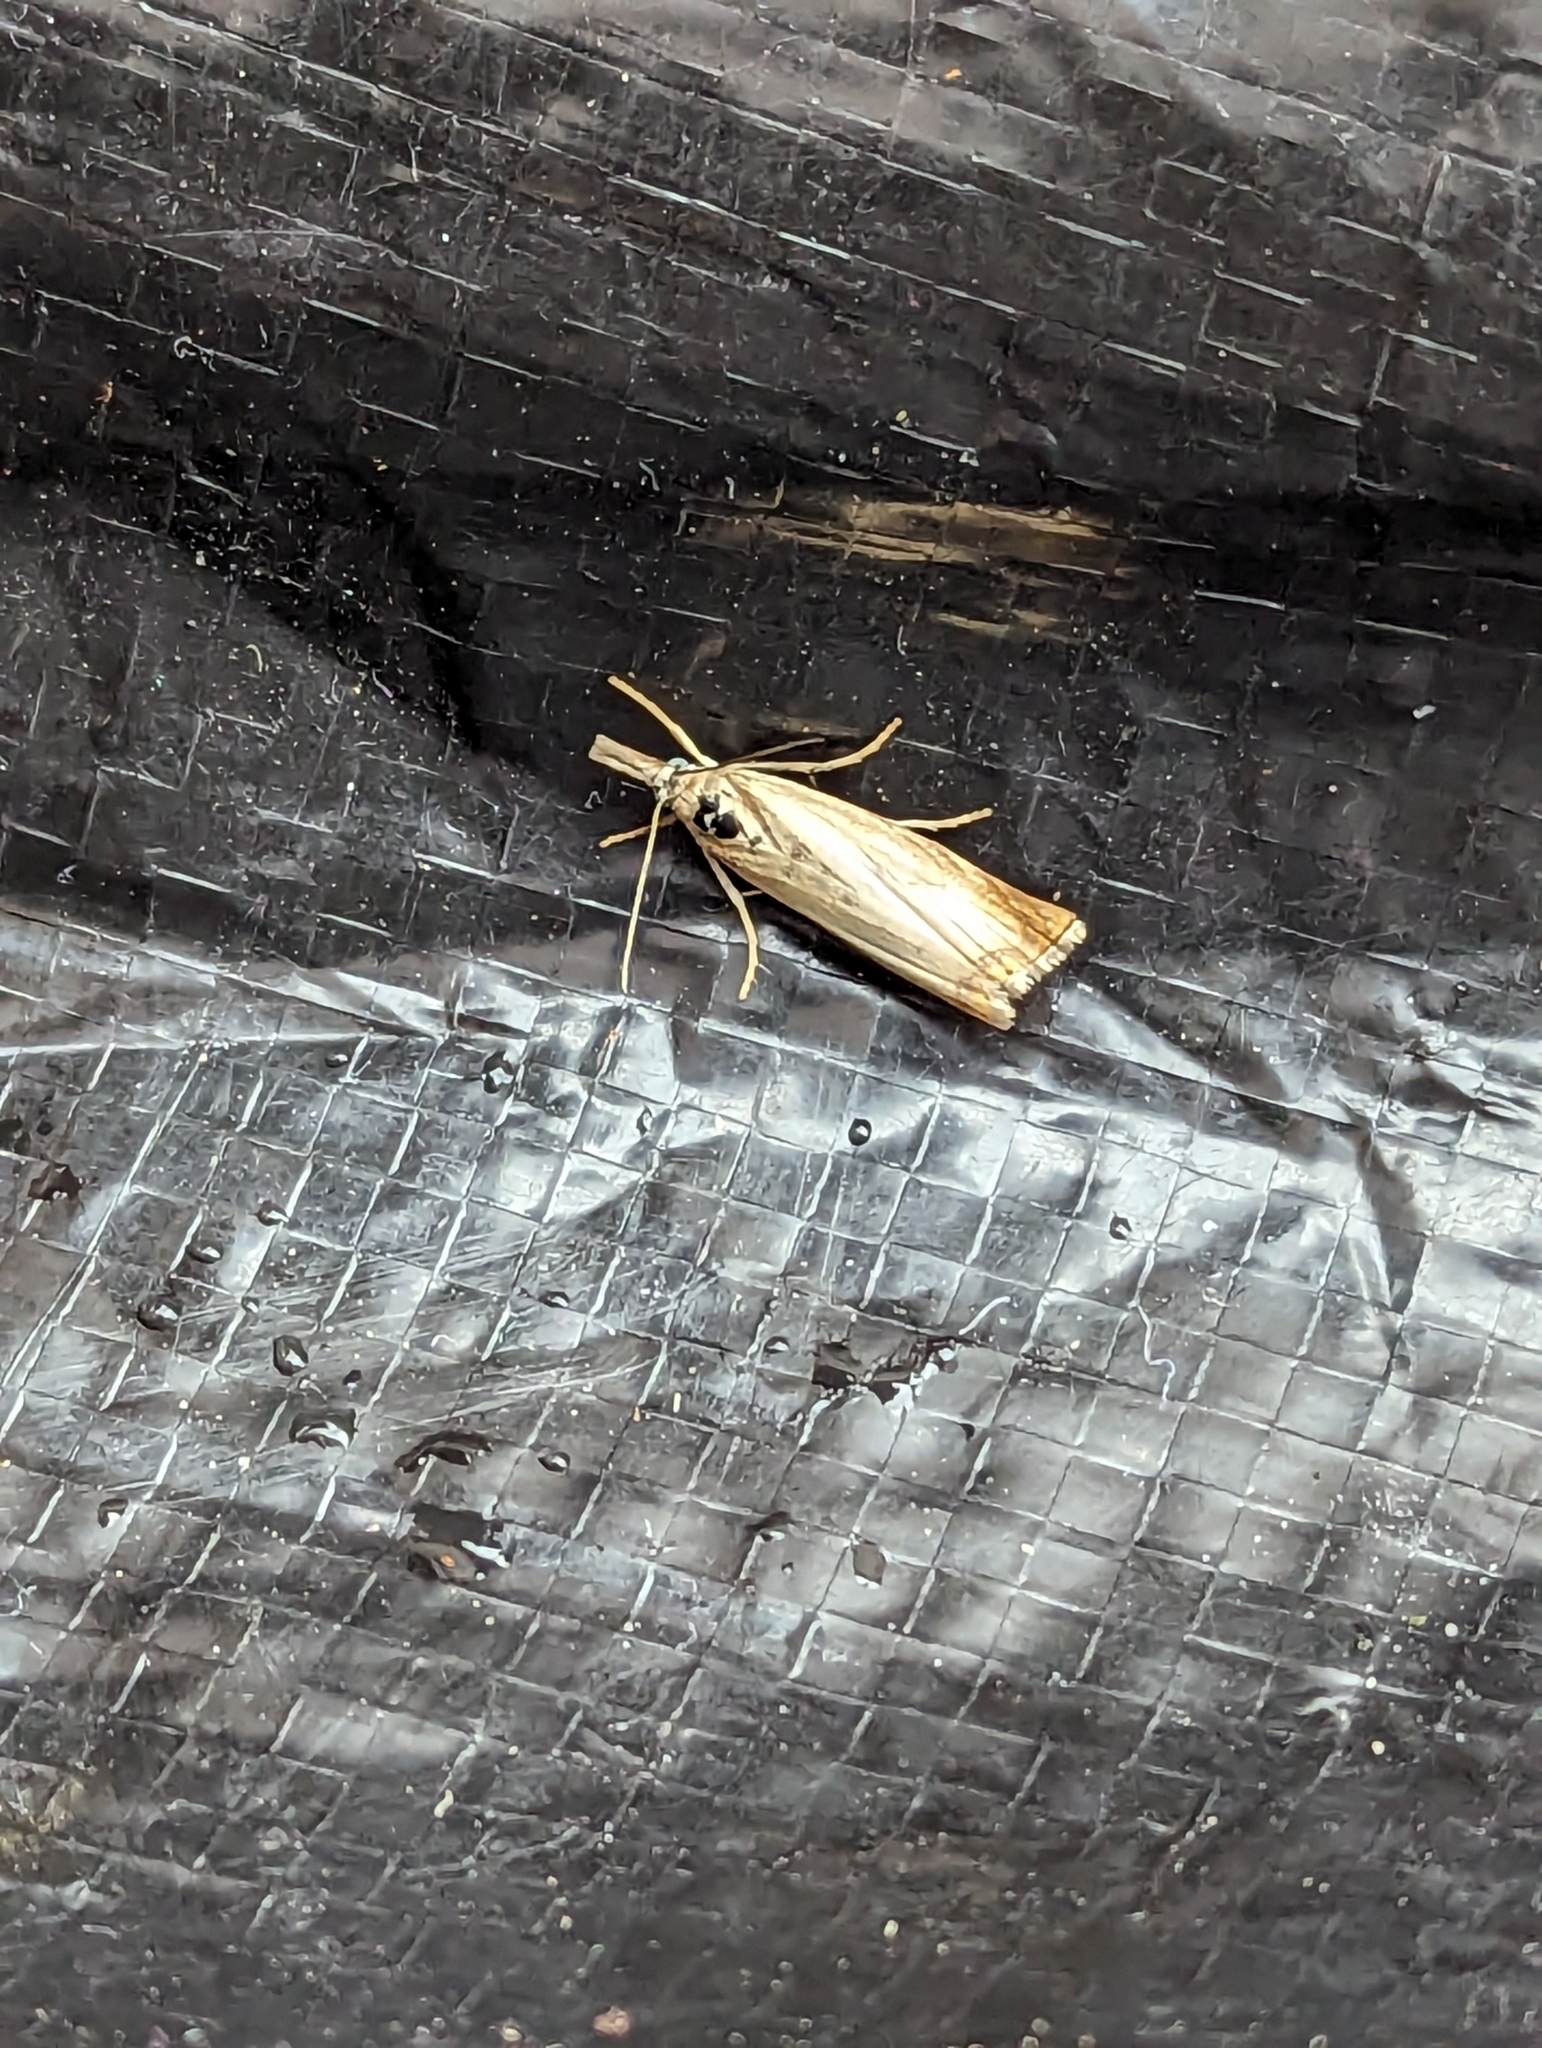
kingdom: Animalia
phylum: Arthropoda
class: Insecta
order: Lepidoptera
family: Crambidae
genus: Chrysoteuchia
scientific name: Chrysoteuchia culmella
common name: Garden grass-veneer
